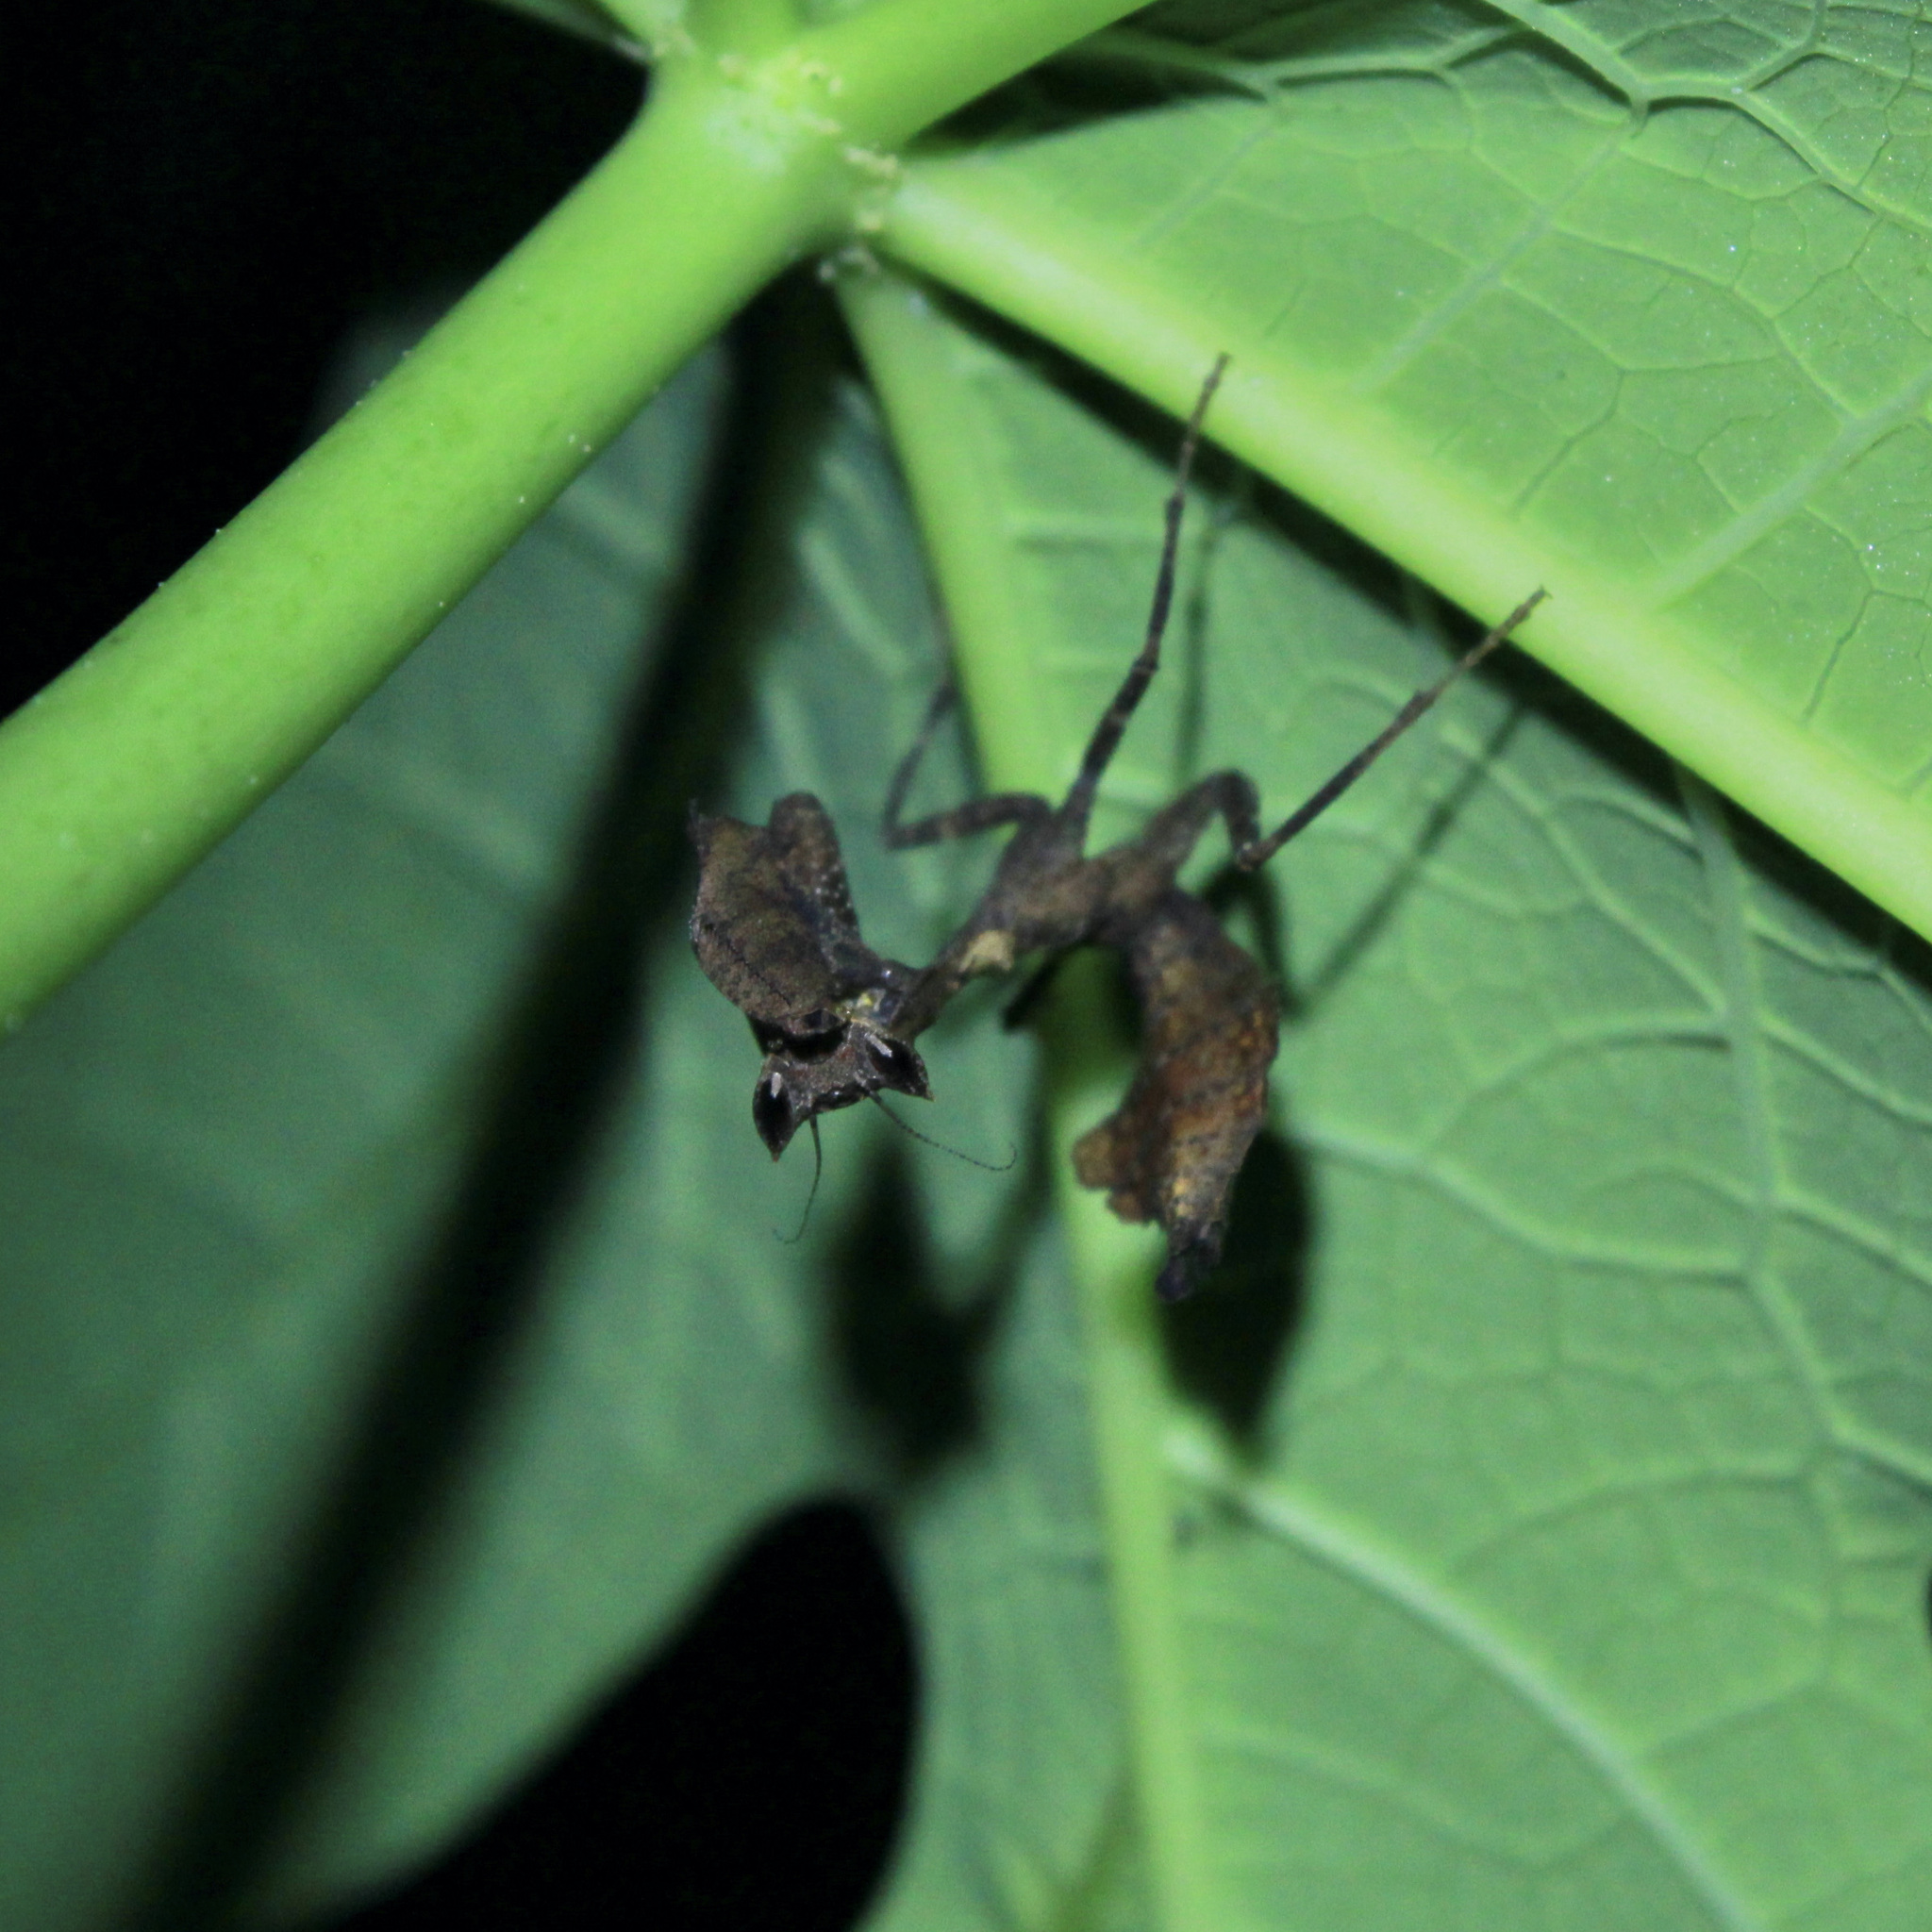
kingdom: Animalia
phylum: Arthropoda
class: Insecta
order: Mantodea
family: Acanthopidae
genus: Acanthops
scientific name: Acanthops parafalcata
